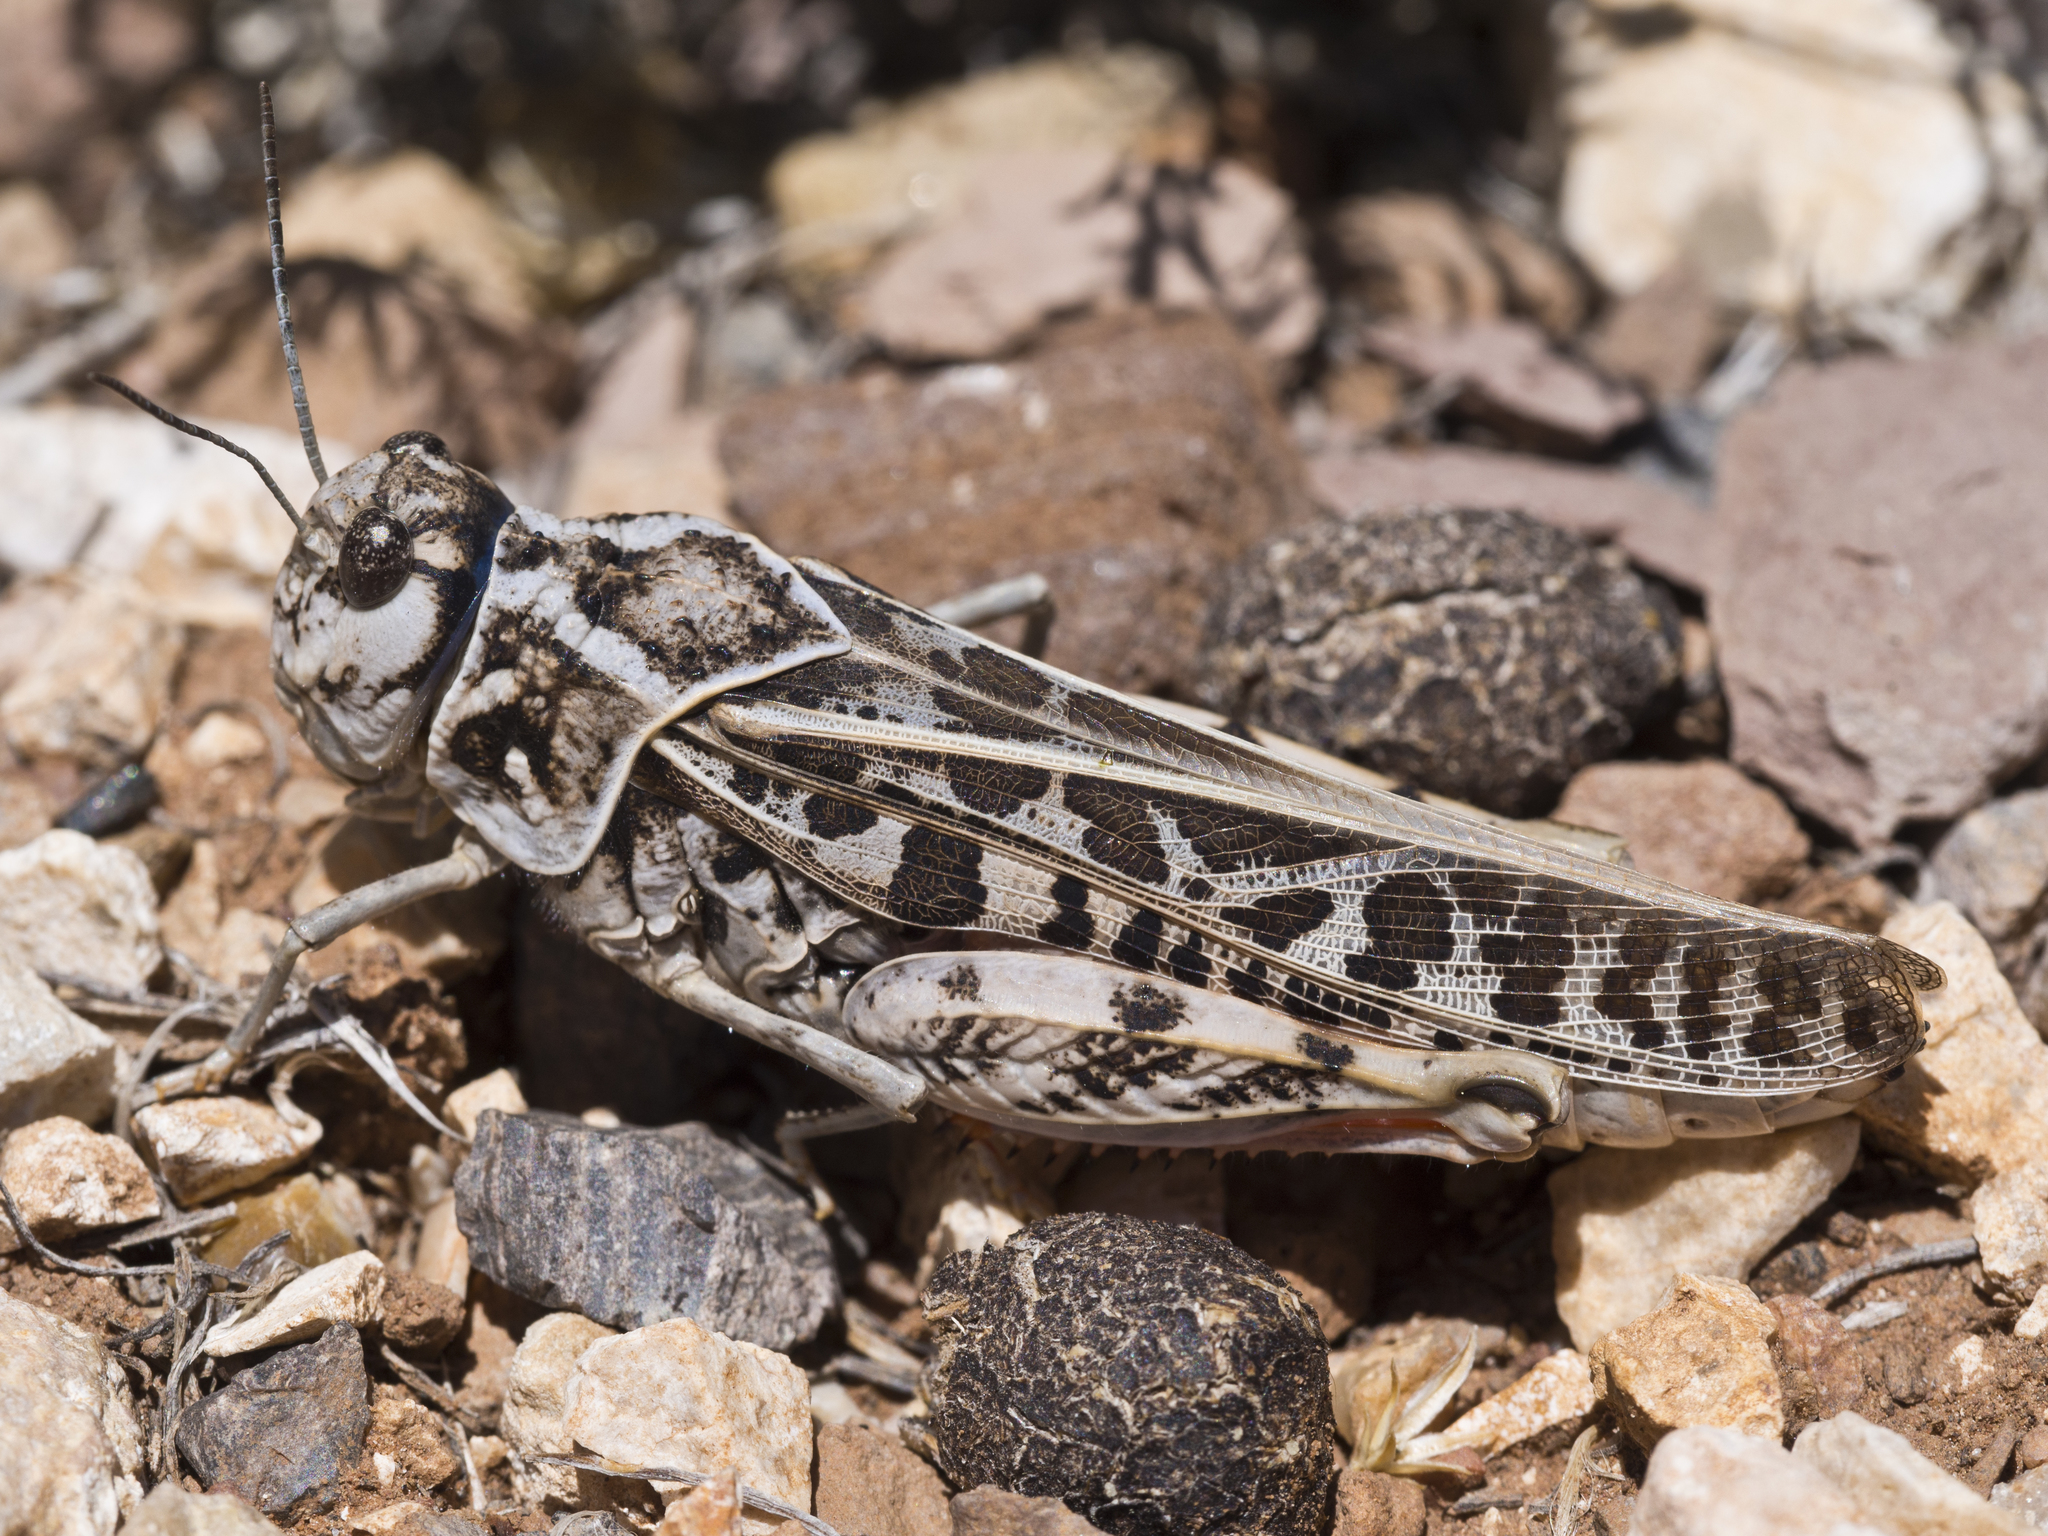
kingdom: Animalia
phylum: Arthropoda
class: Insecta
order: Orthoptera
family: Acrididae
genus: Xanthippus
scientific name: Xanthippus corallipes
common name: Redshanked grasshopper
